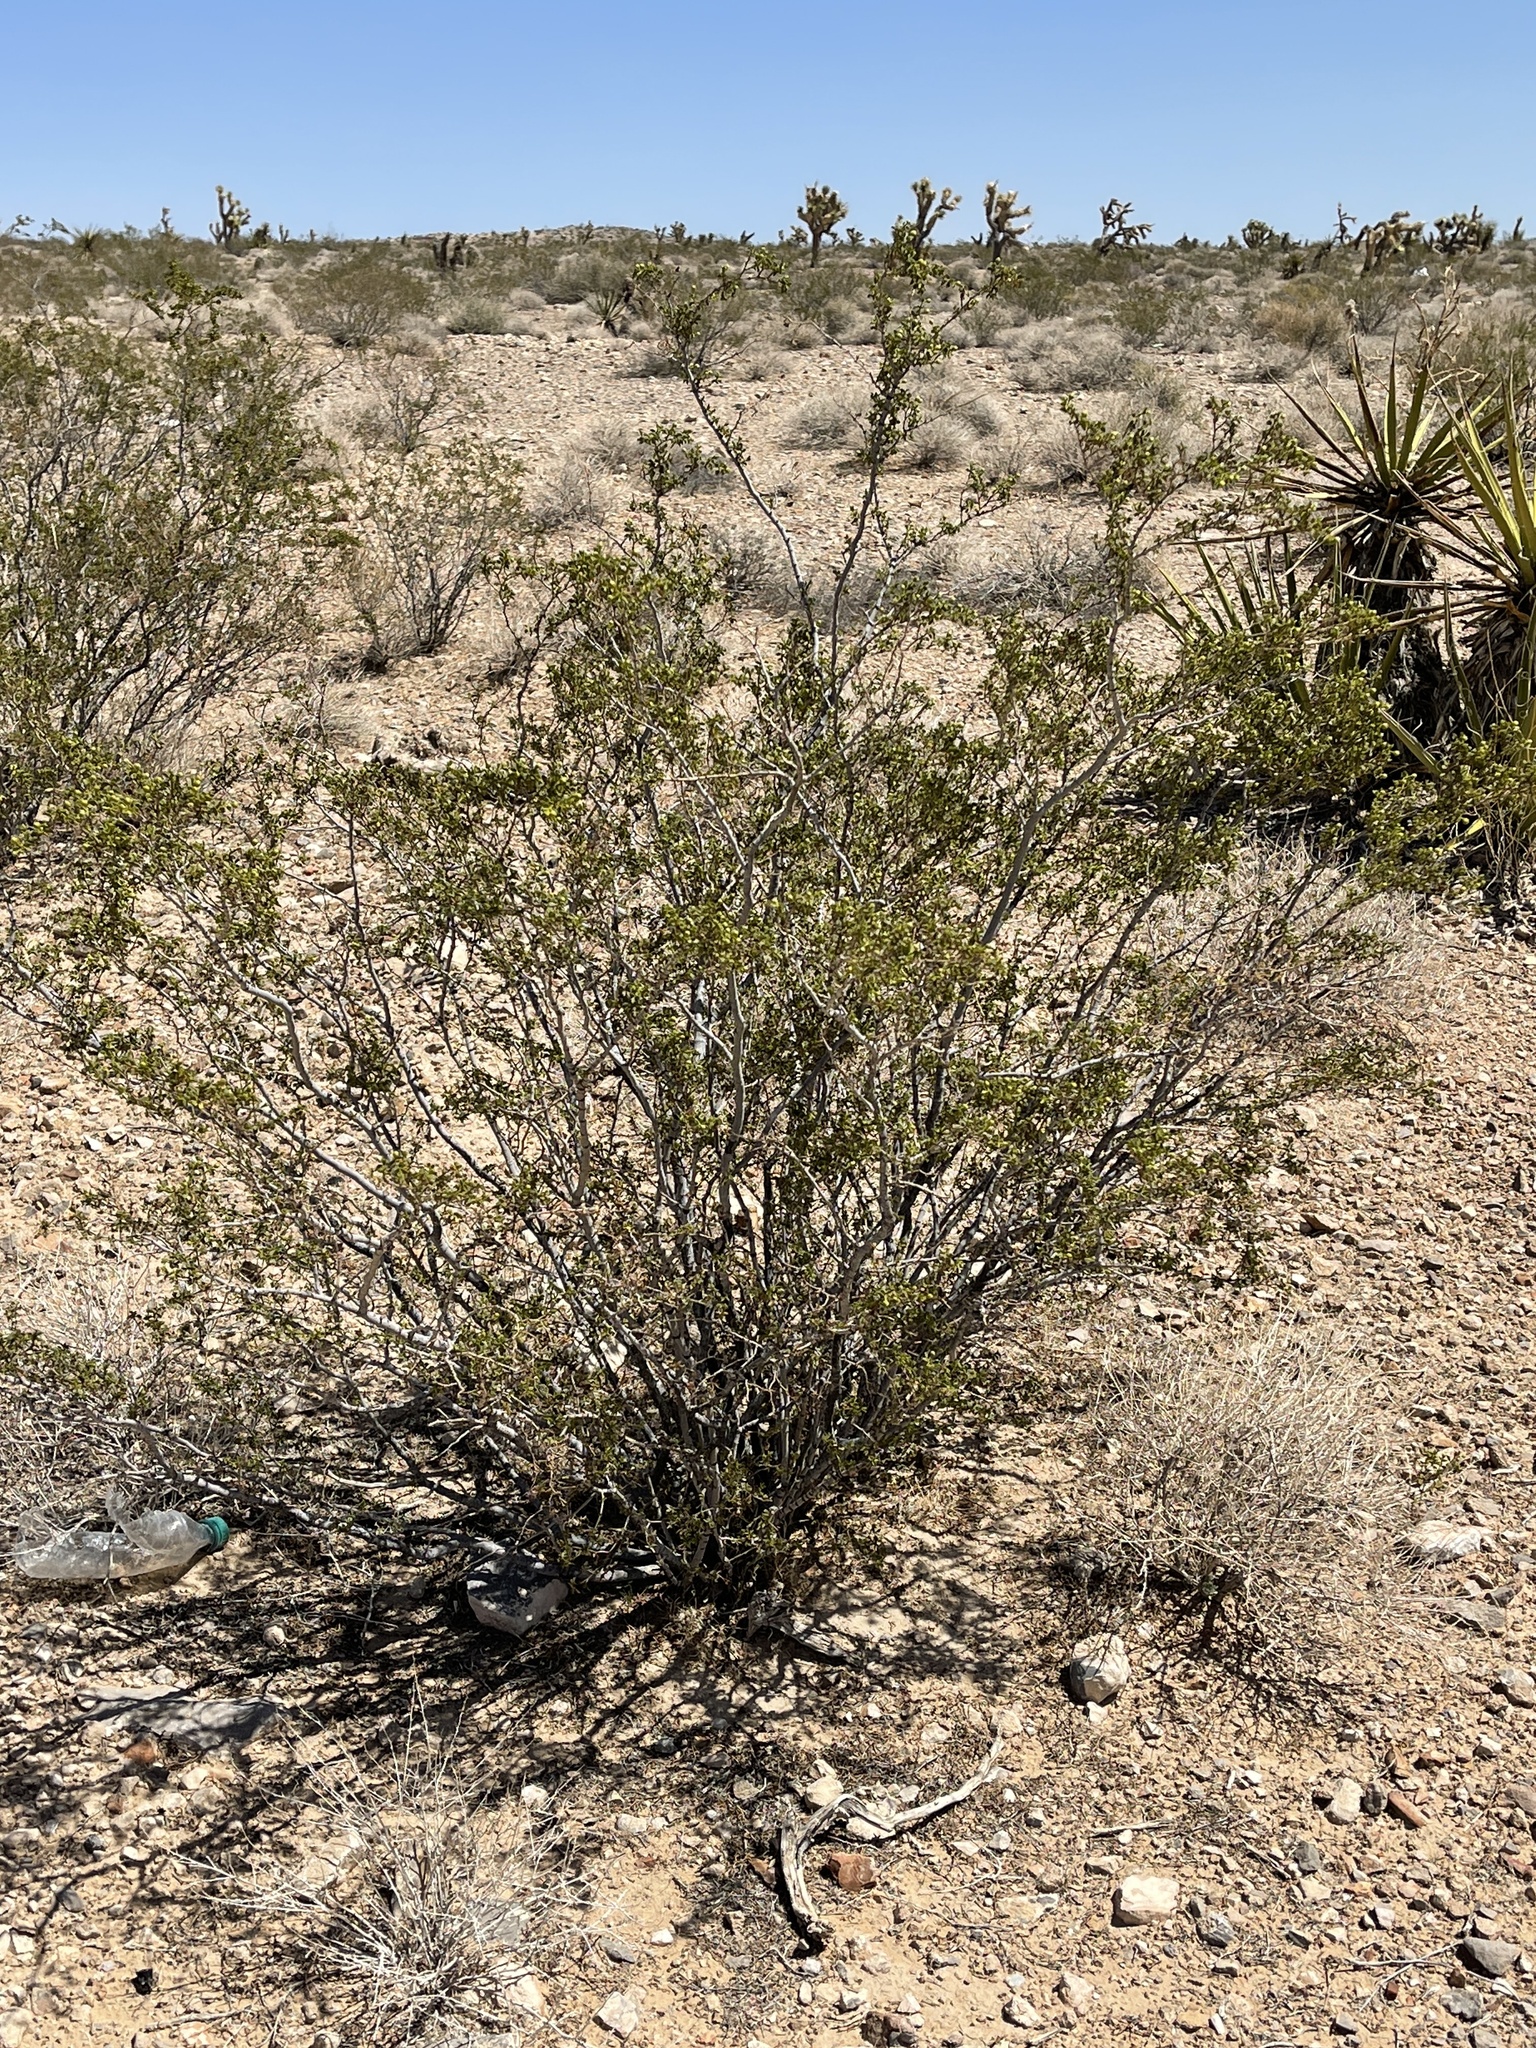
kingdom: Plantae
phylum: Tracheophyta
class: Magnoliopsida
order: Zygophyllales
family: Zygophyllaceae
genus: Larrea
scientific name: Larrea tridentata
